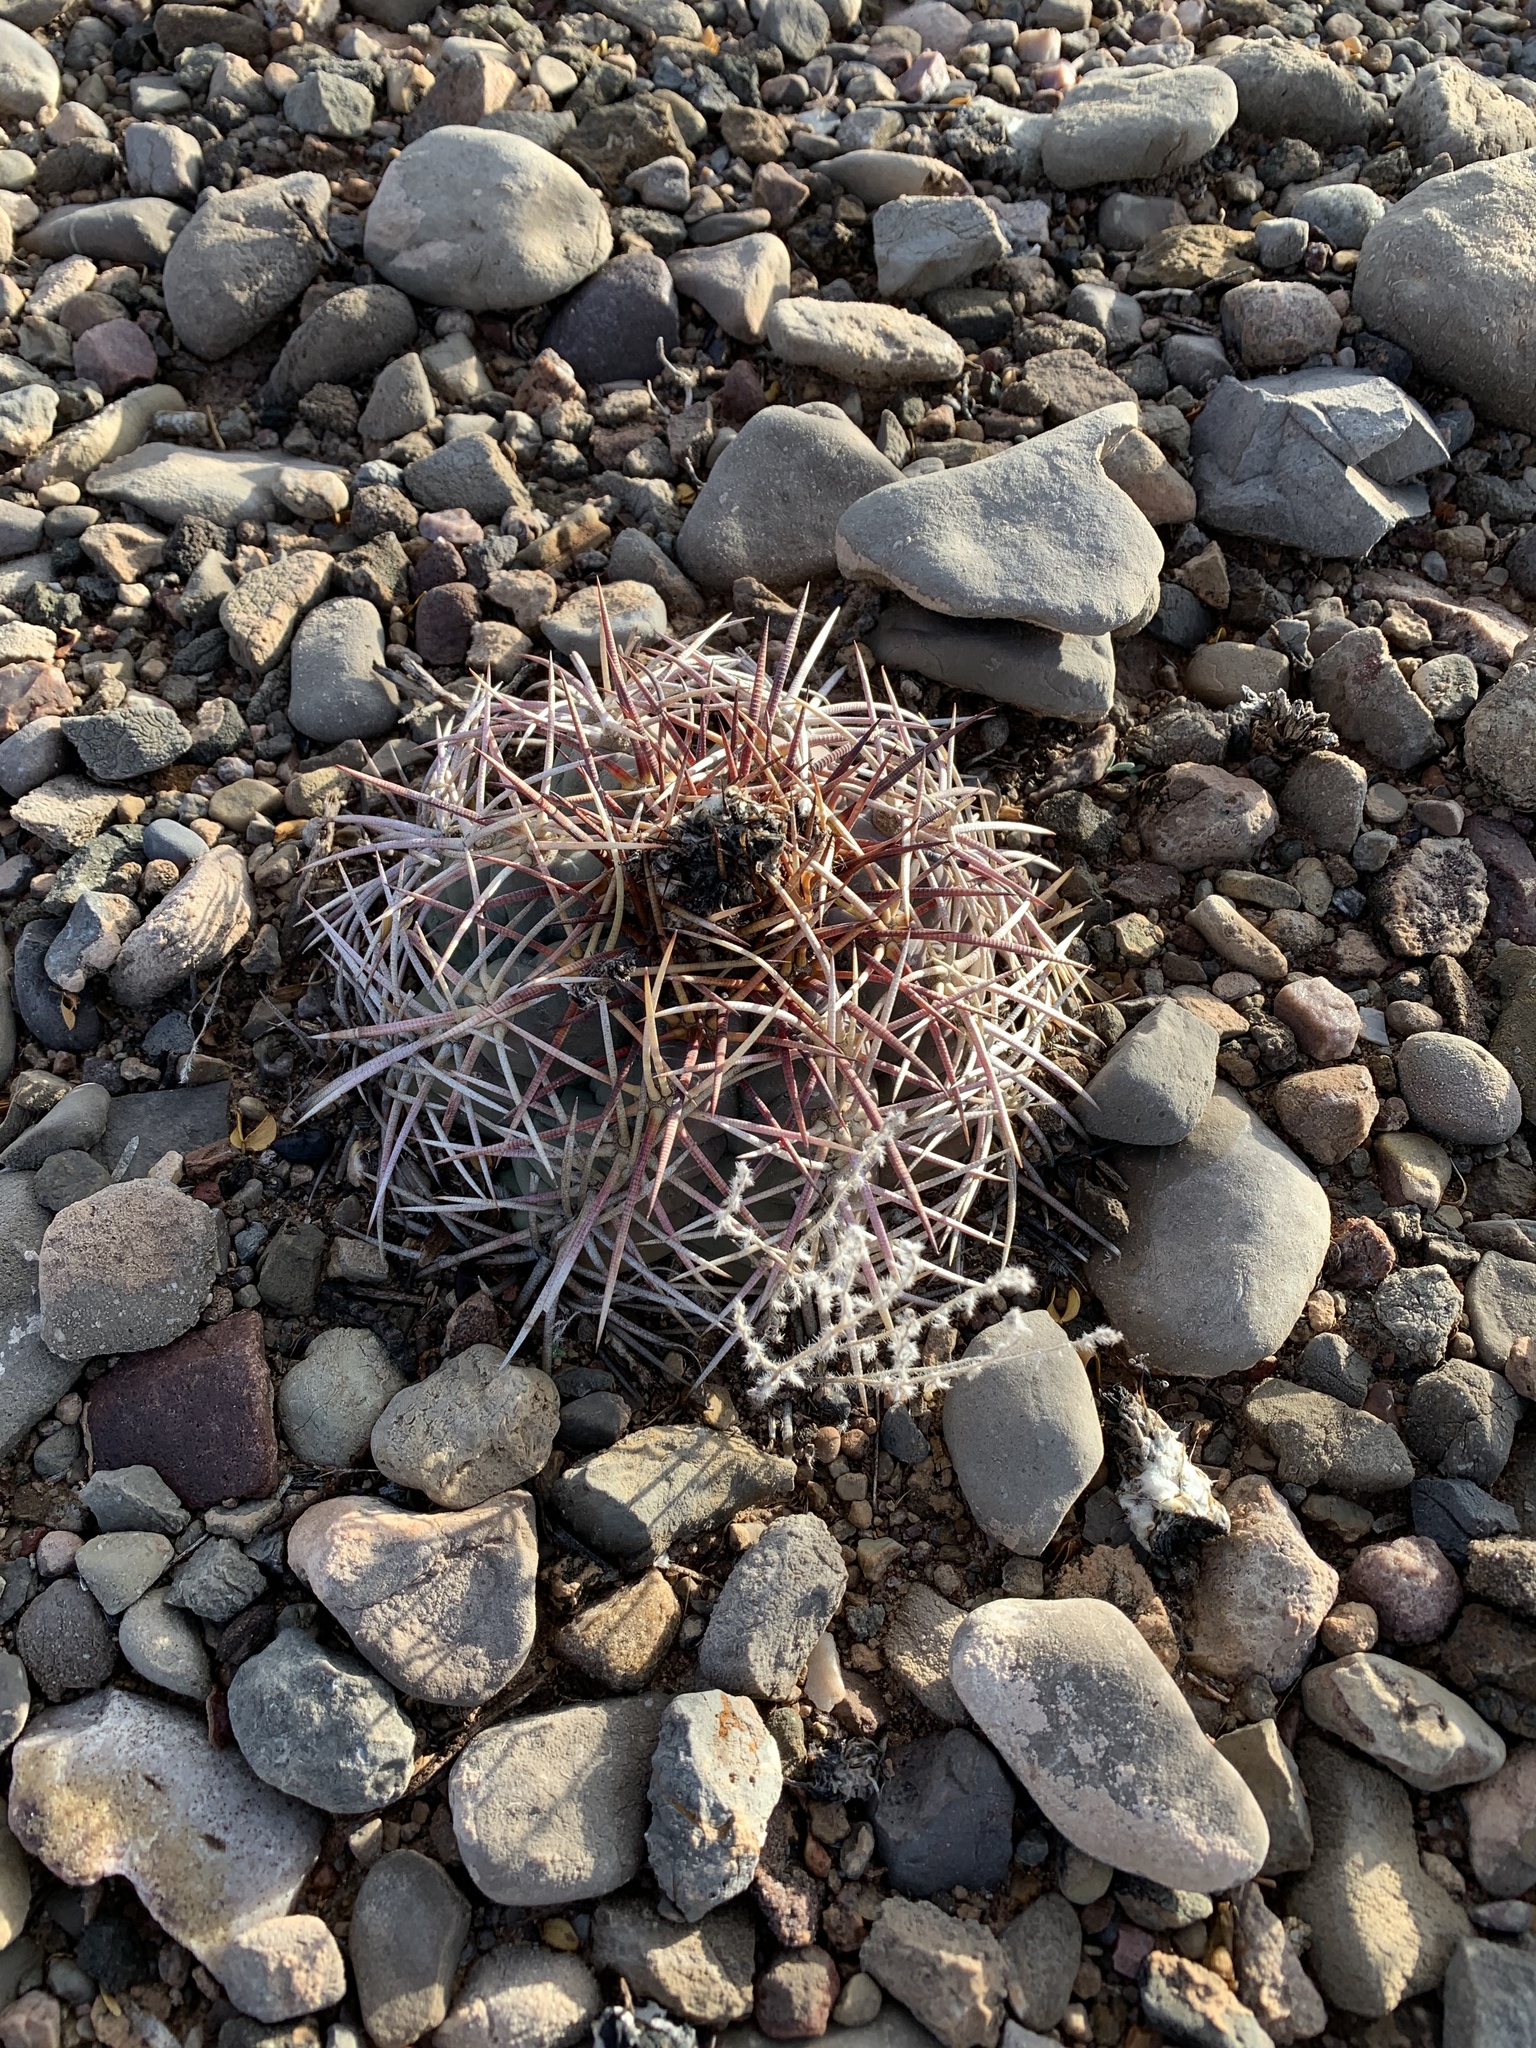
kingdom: Plantae
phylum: Tracheophyta
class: Magnoliopsida
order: Caryophyllales
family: Cactaceae
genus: Echinocactus
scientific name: Echinocactus horizonthalonius
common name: Devilshead
